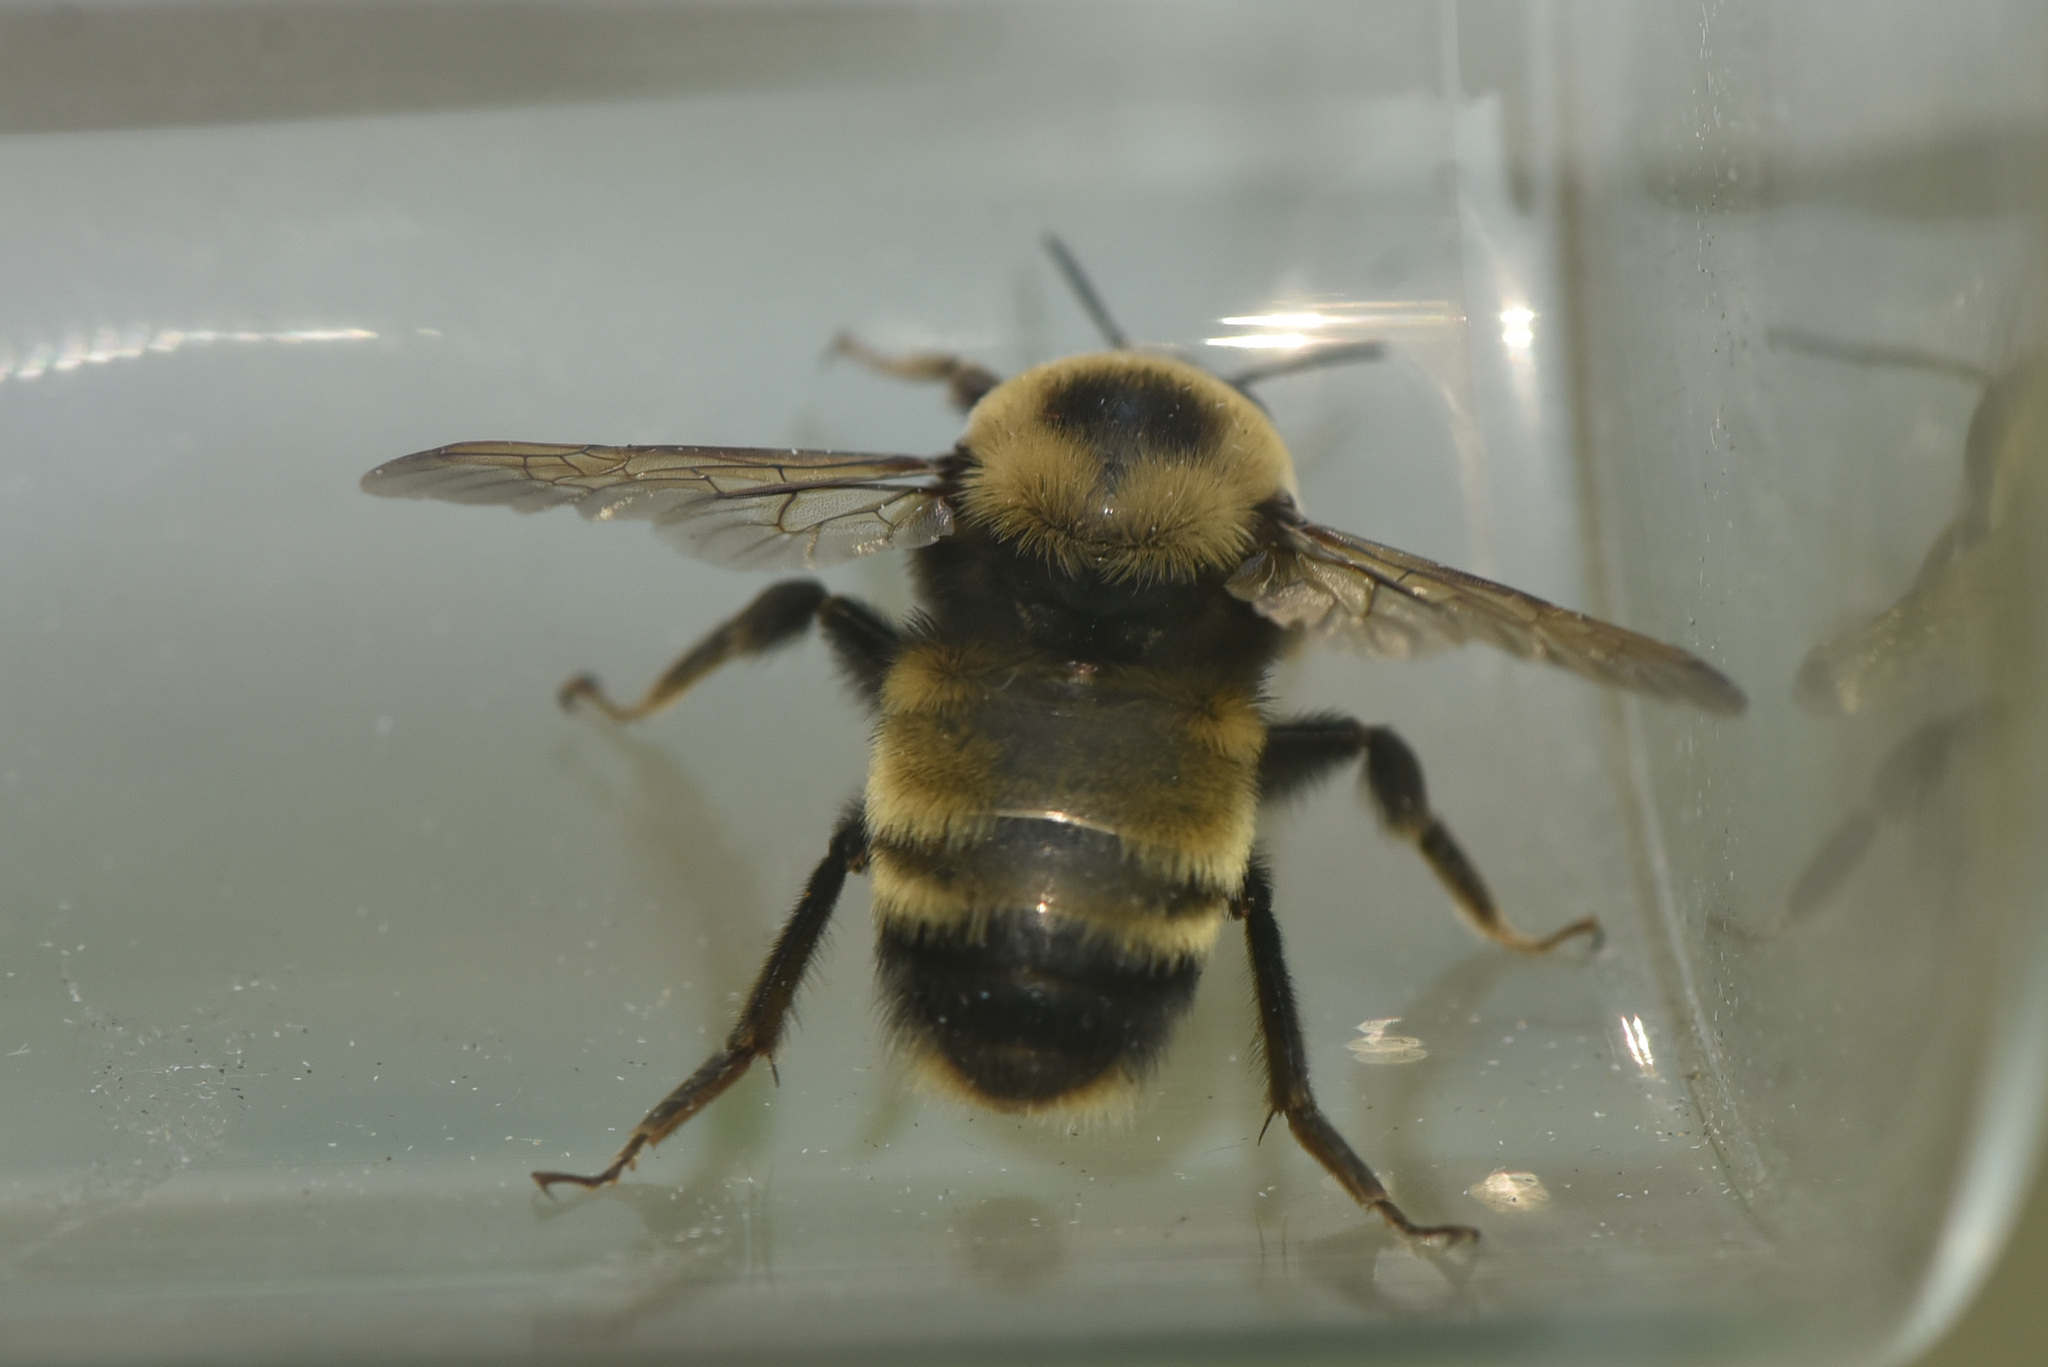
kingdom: Animalia
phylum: Arthropoda
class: Insecta
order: Hymenoptera
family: Apidae
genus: Bombus
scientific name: Bombus nevadensis
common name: Nevada bumble bee
